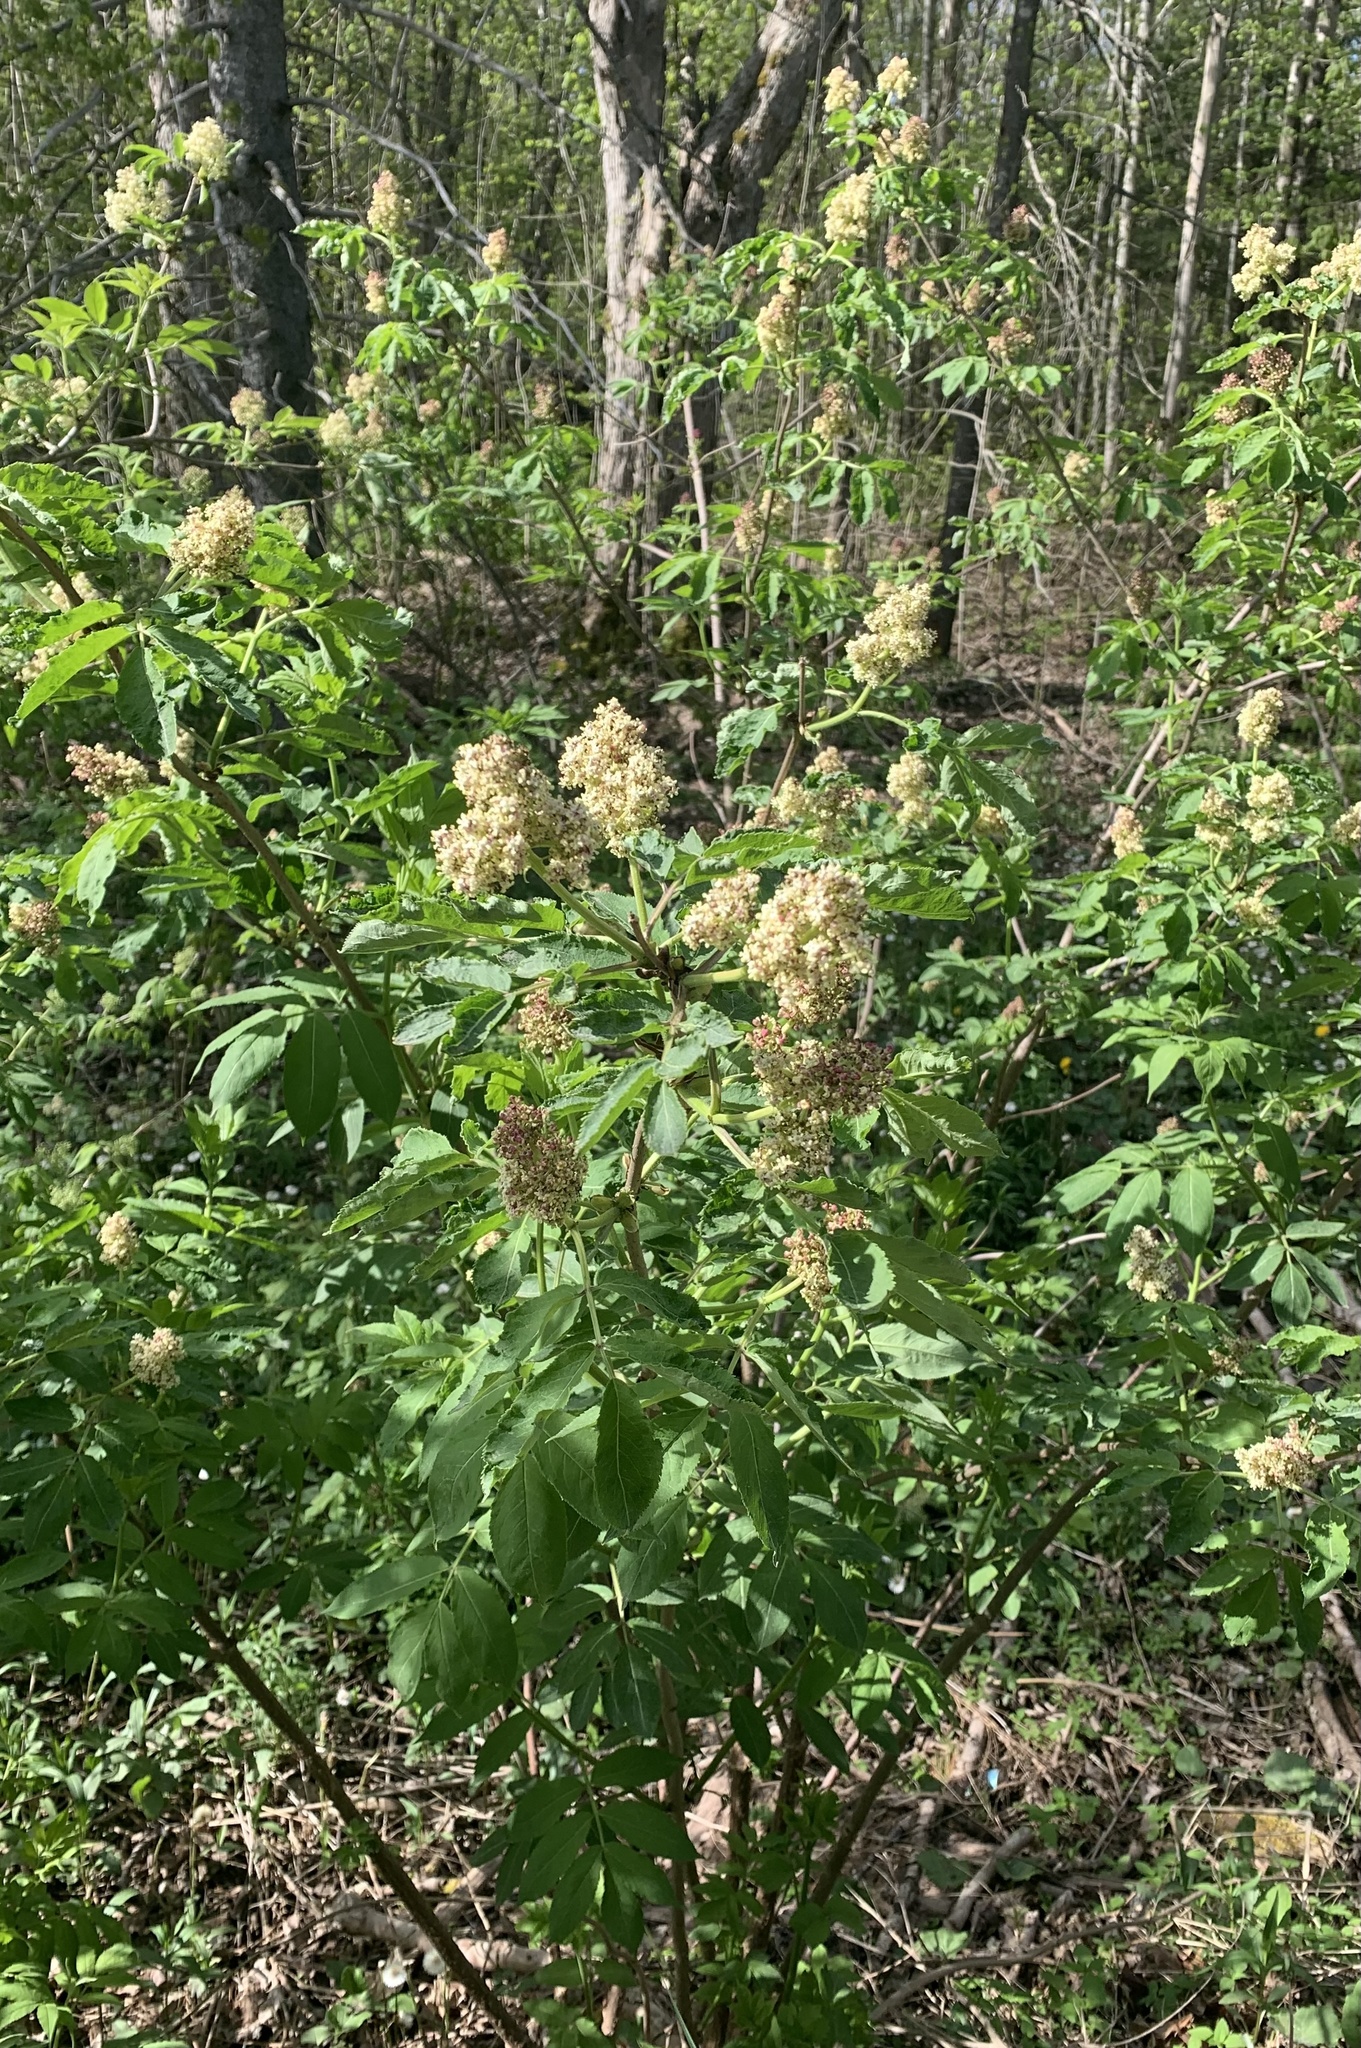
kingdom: Plantae
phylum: Tracheophyta
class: Magnoliopsida
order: Dipsacales
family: Viburnaceae
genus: Sambucus
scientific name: Sambucus racemosa
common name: Red-berried elder
